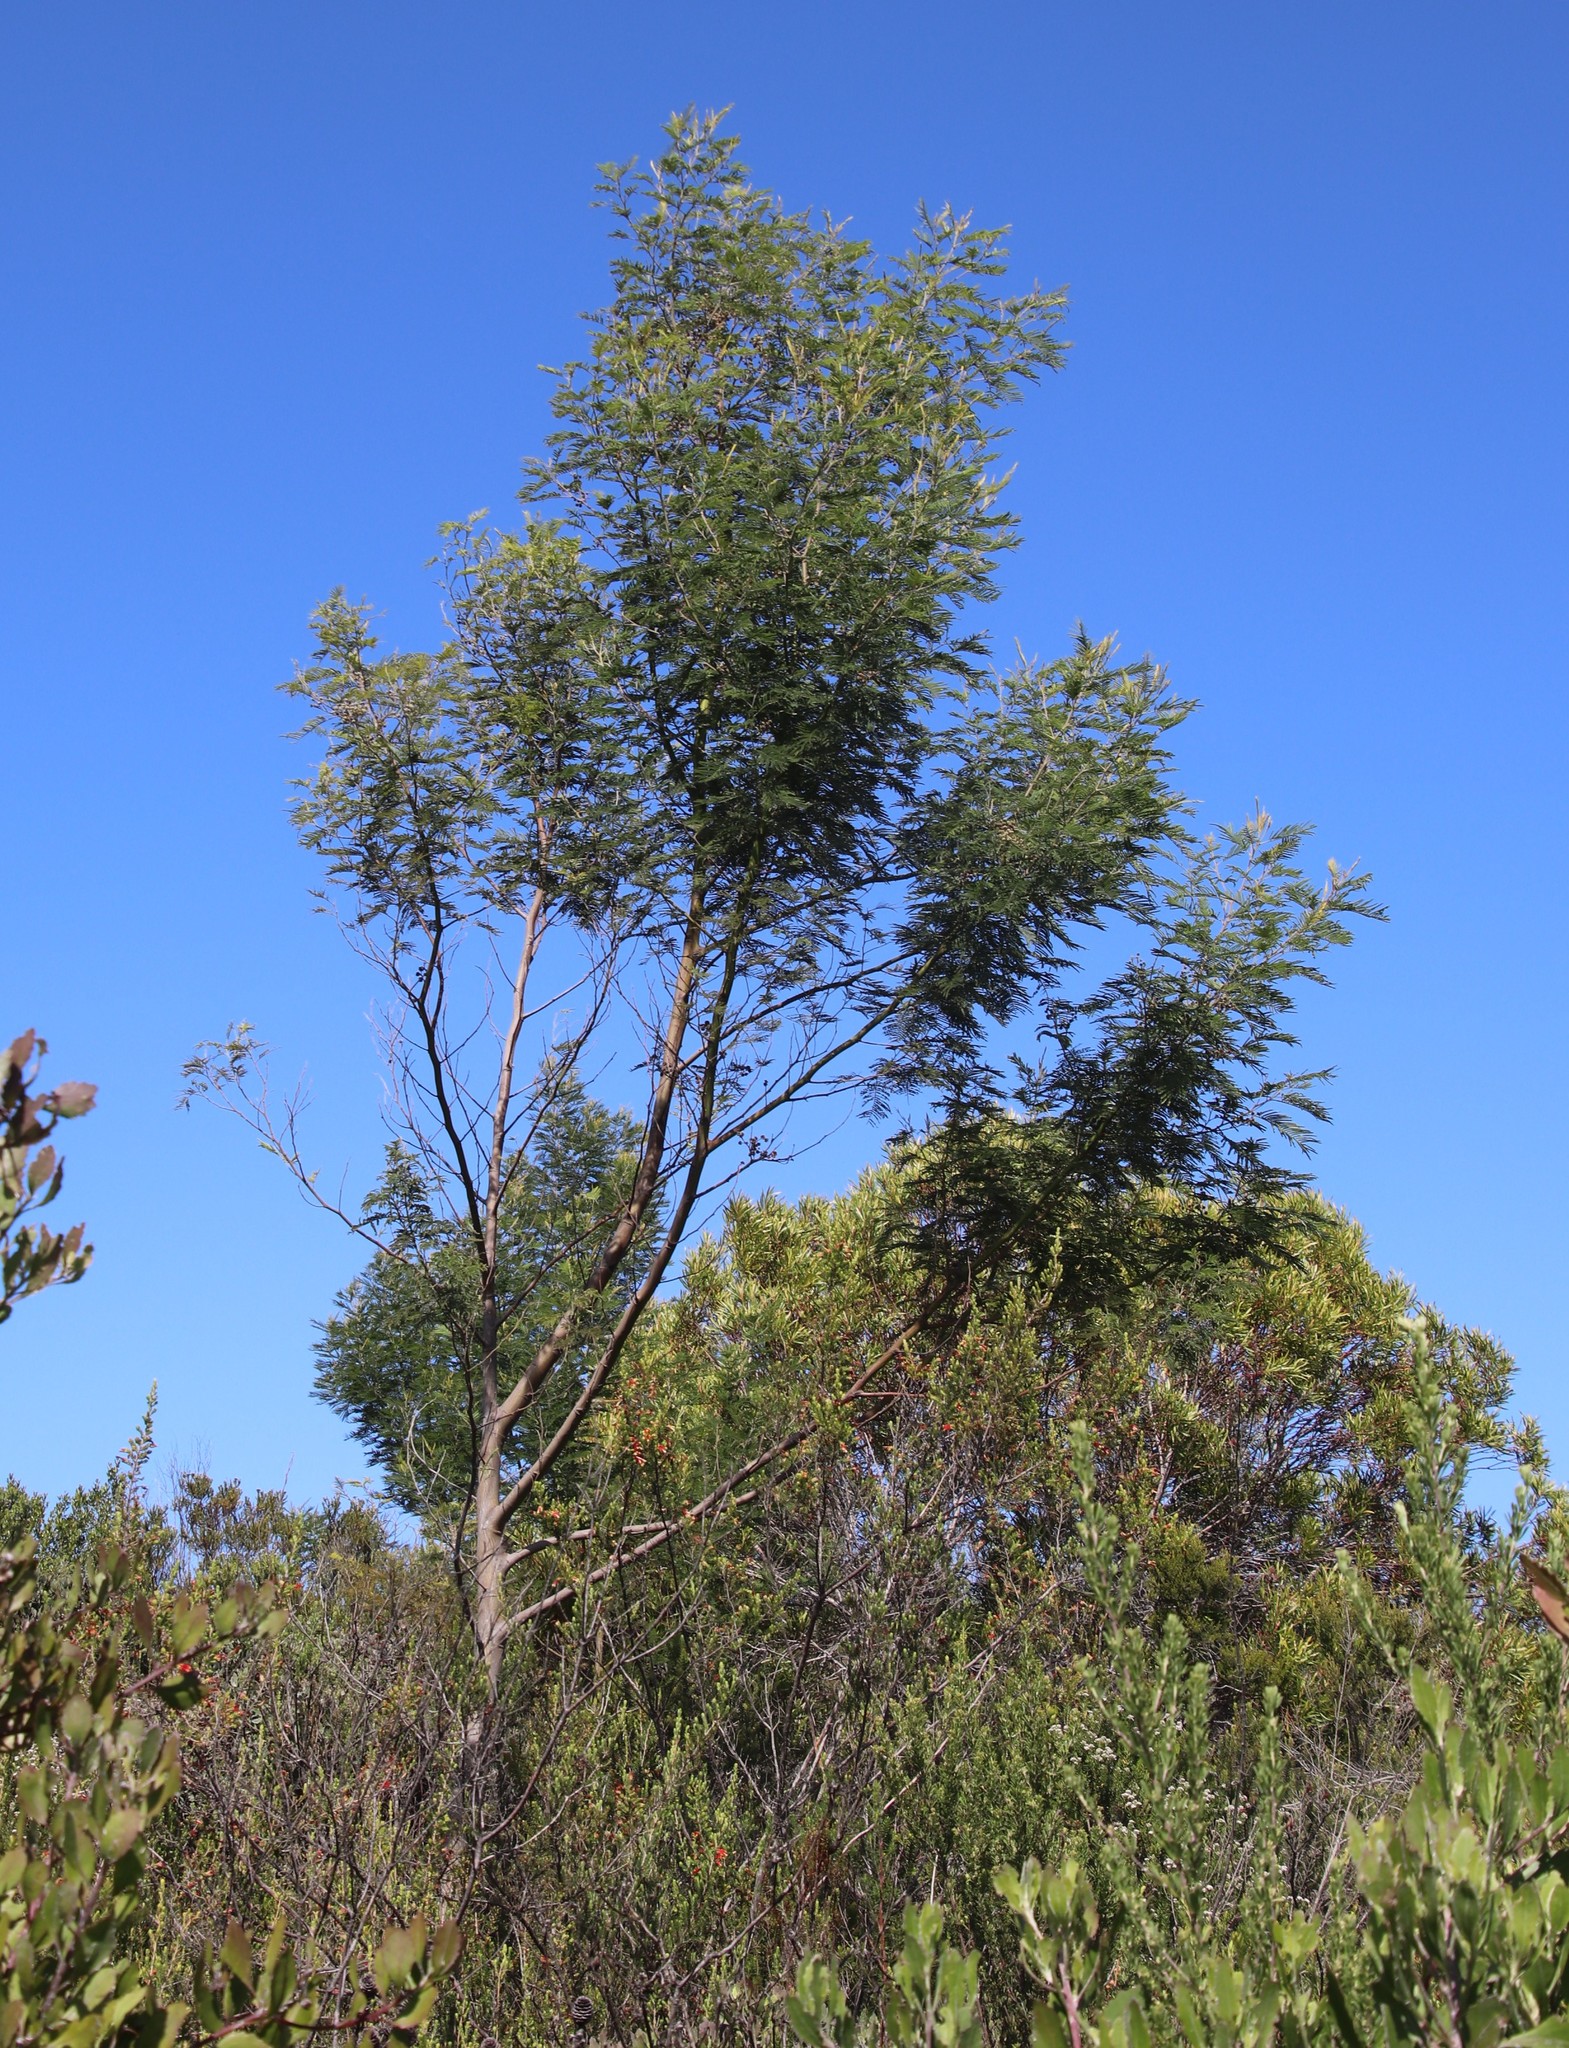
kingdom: Plantae
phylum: Tracheophyta
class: Magnoliopsida
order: Fabales
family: Fabaceae
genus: Acacia
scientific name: Acacia mearnsii
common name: Black wattle
